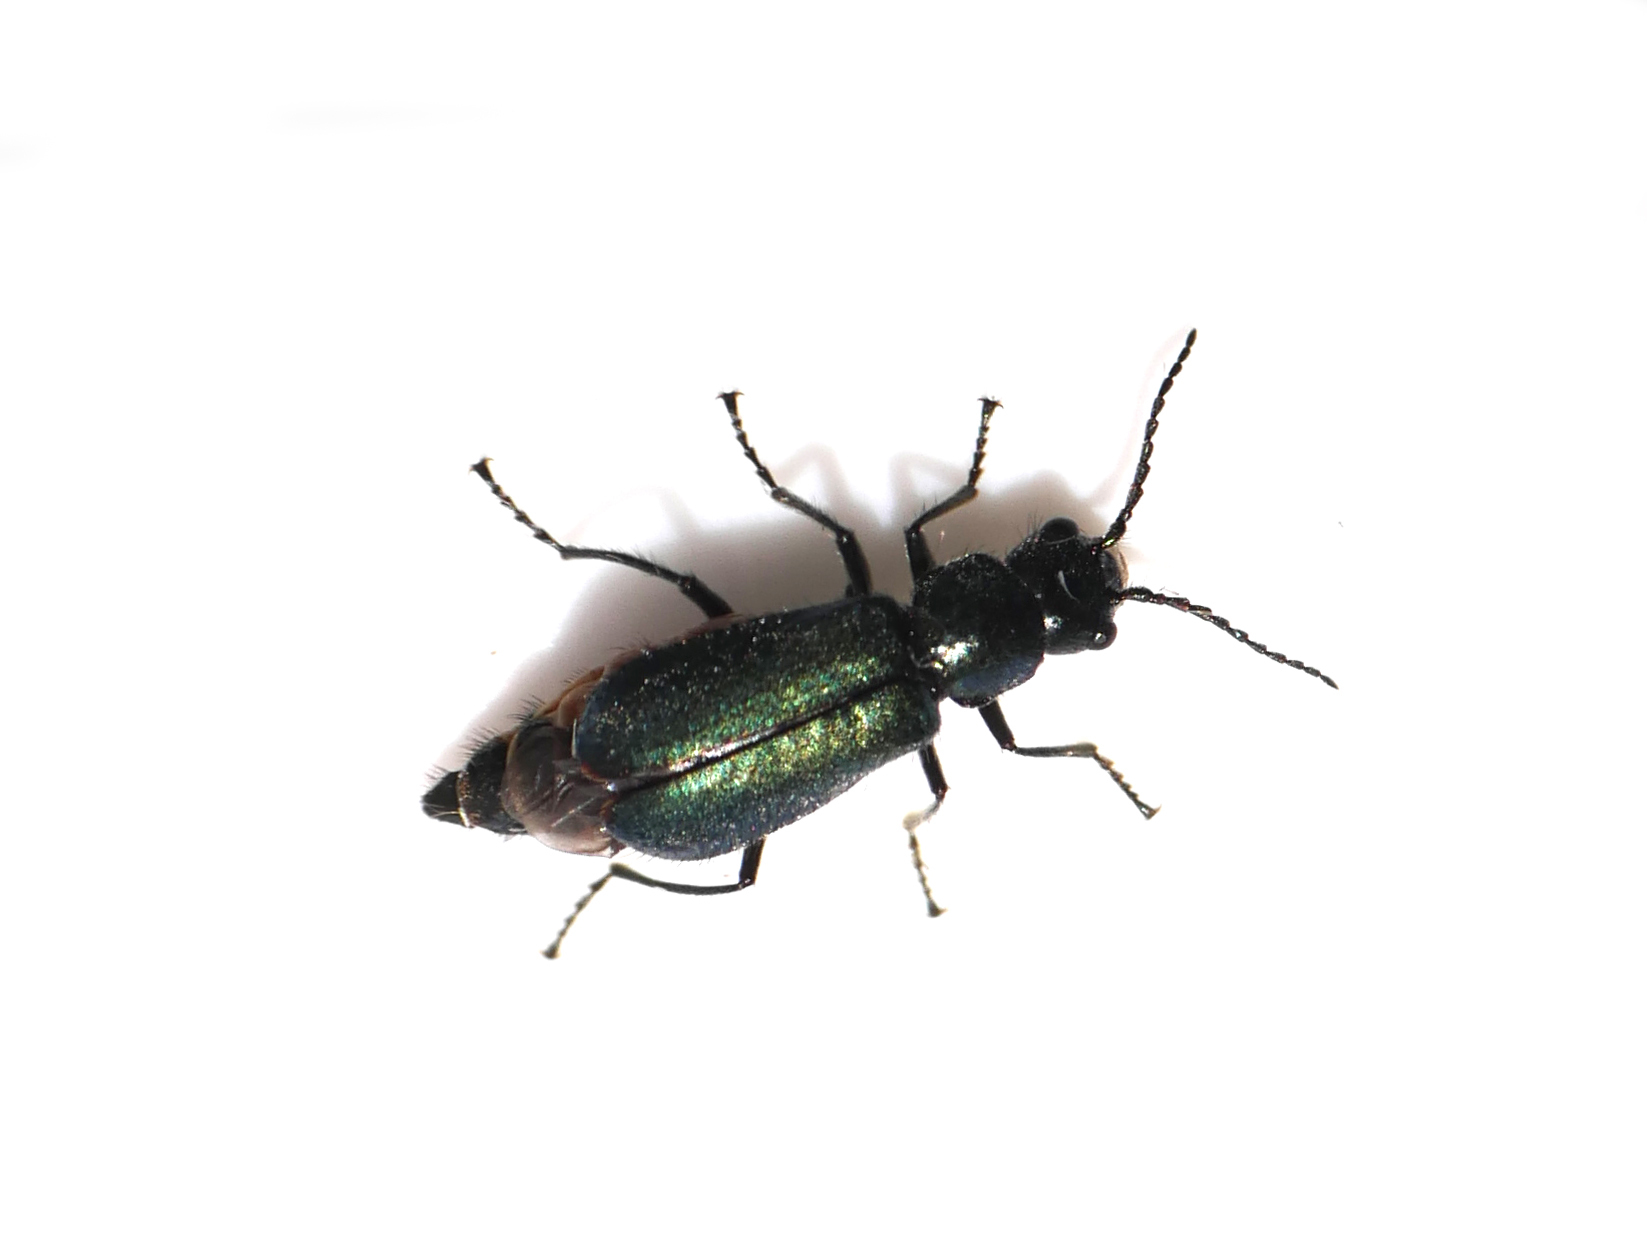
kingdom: Animalia
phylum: Arthropoda
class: Insecta
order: Coleoptera
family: Malachiidae
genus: Cordylepherus
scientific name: Cordylepherus viridis
